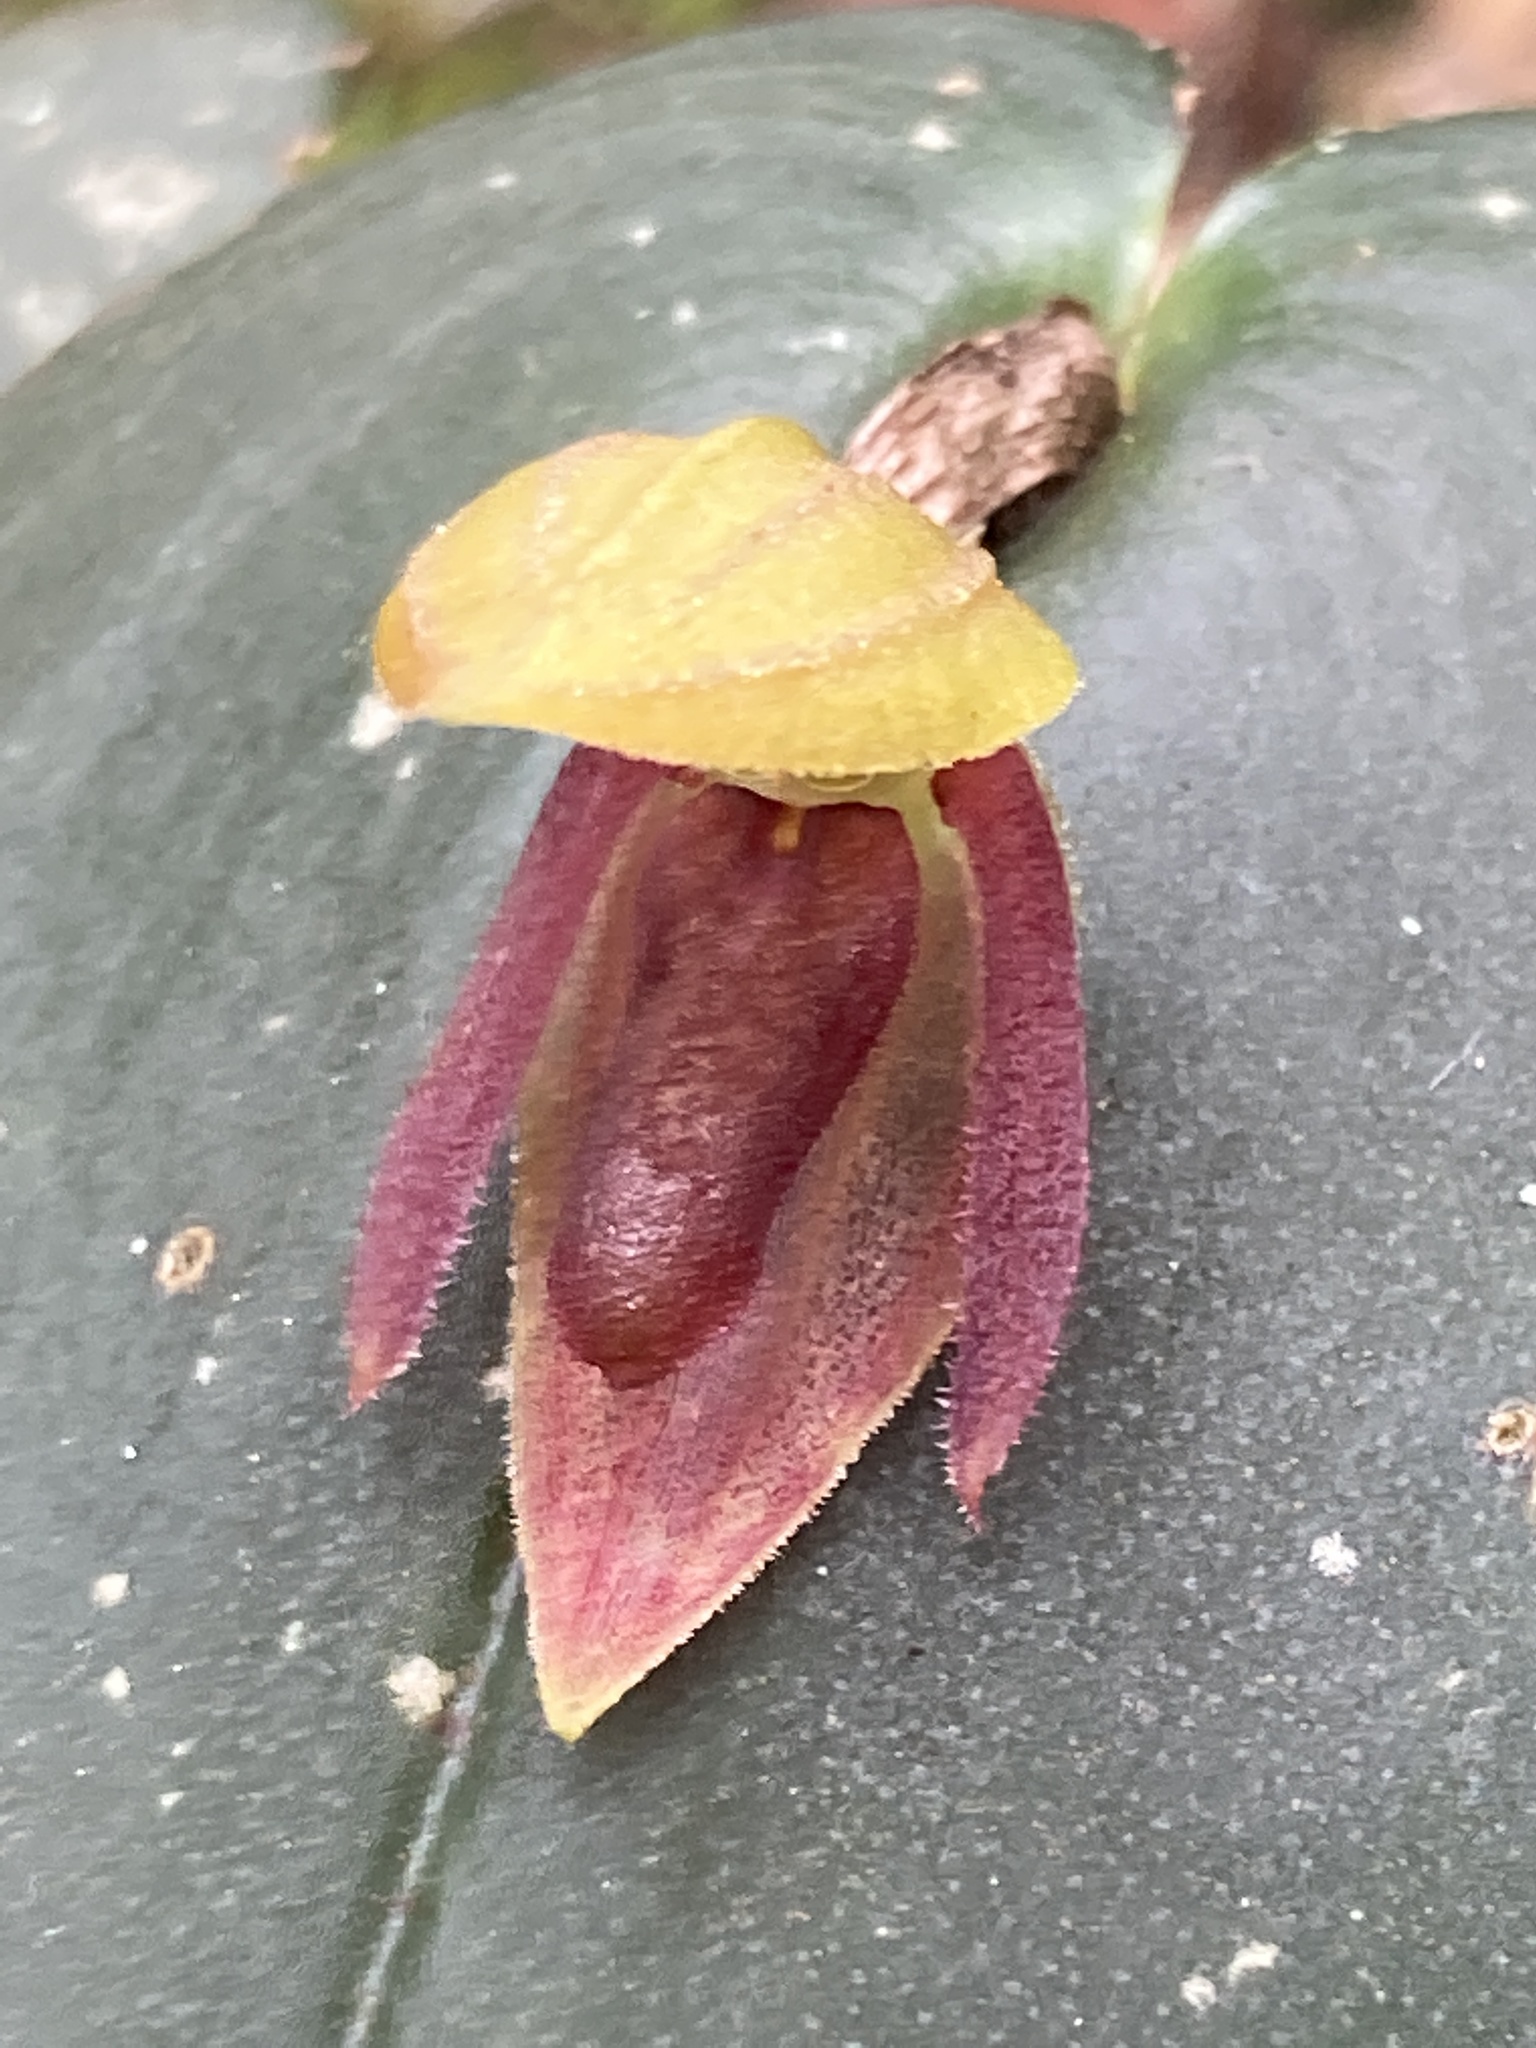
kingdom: Plantae
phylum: Tracheophyta
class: Liliopsida
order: Asparagales
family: Orchidaceae
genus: Pleurothallis
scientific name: Pleurothallis adonis
